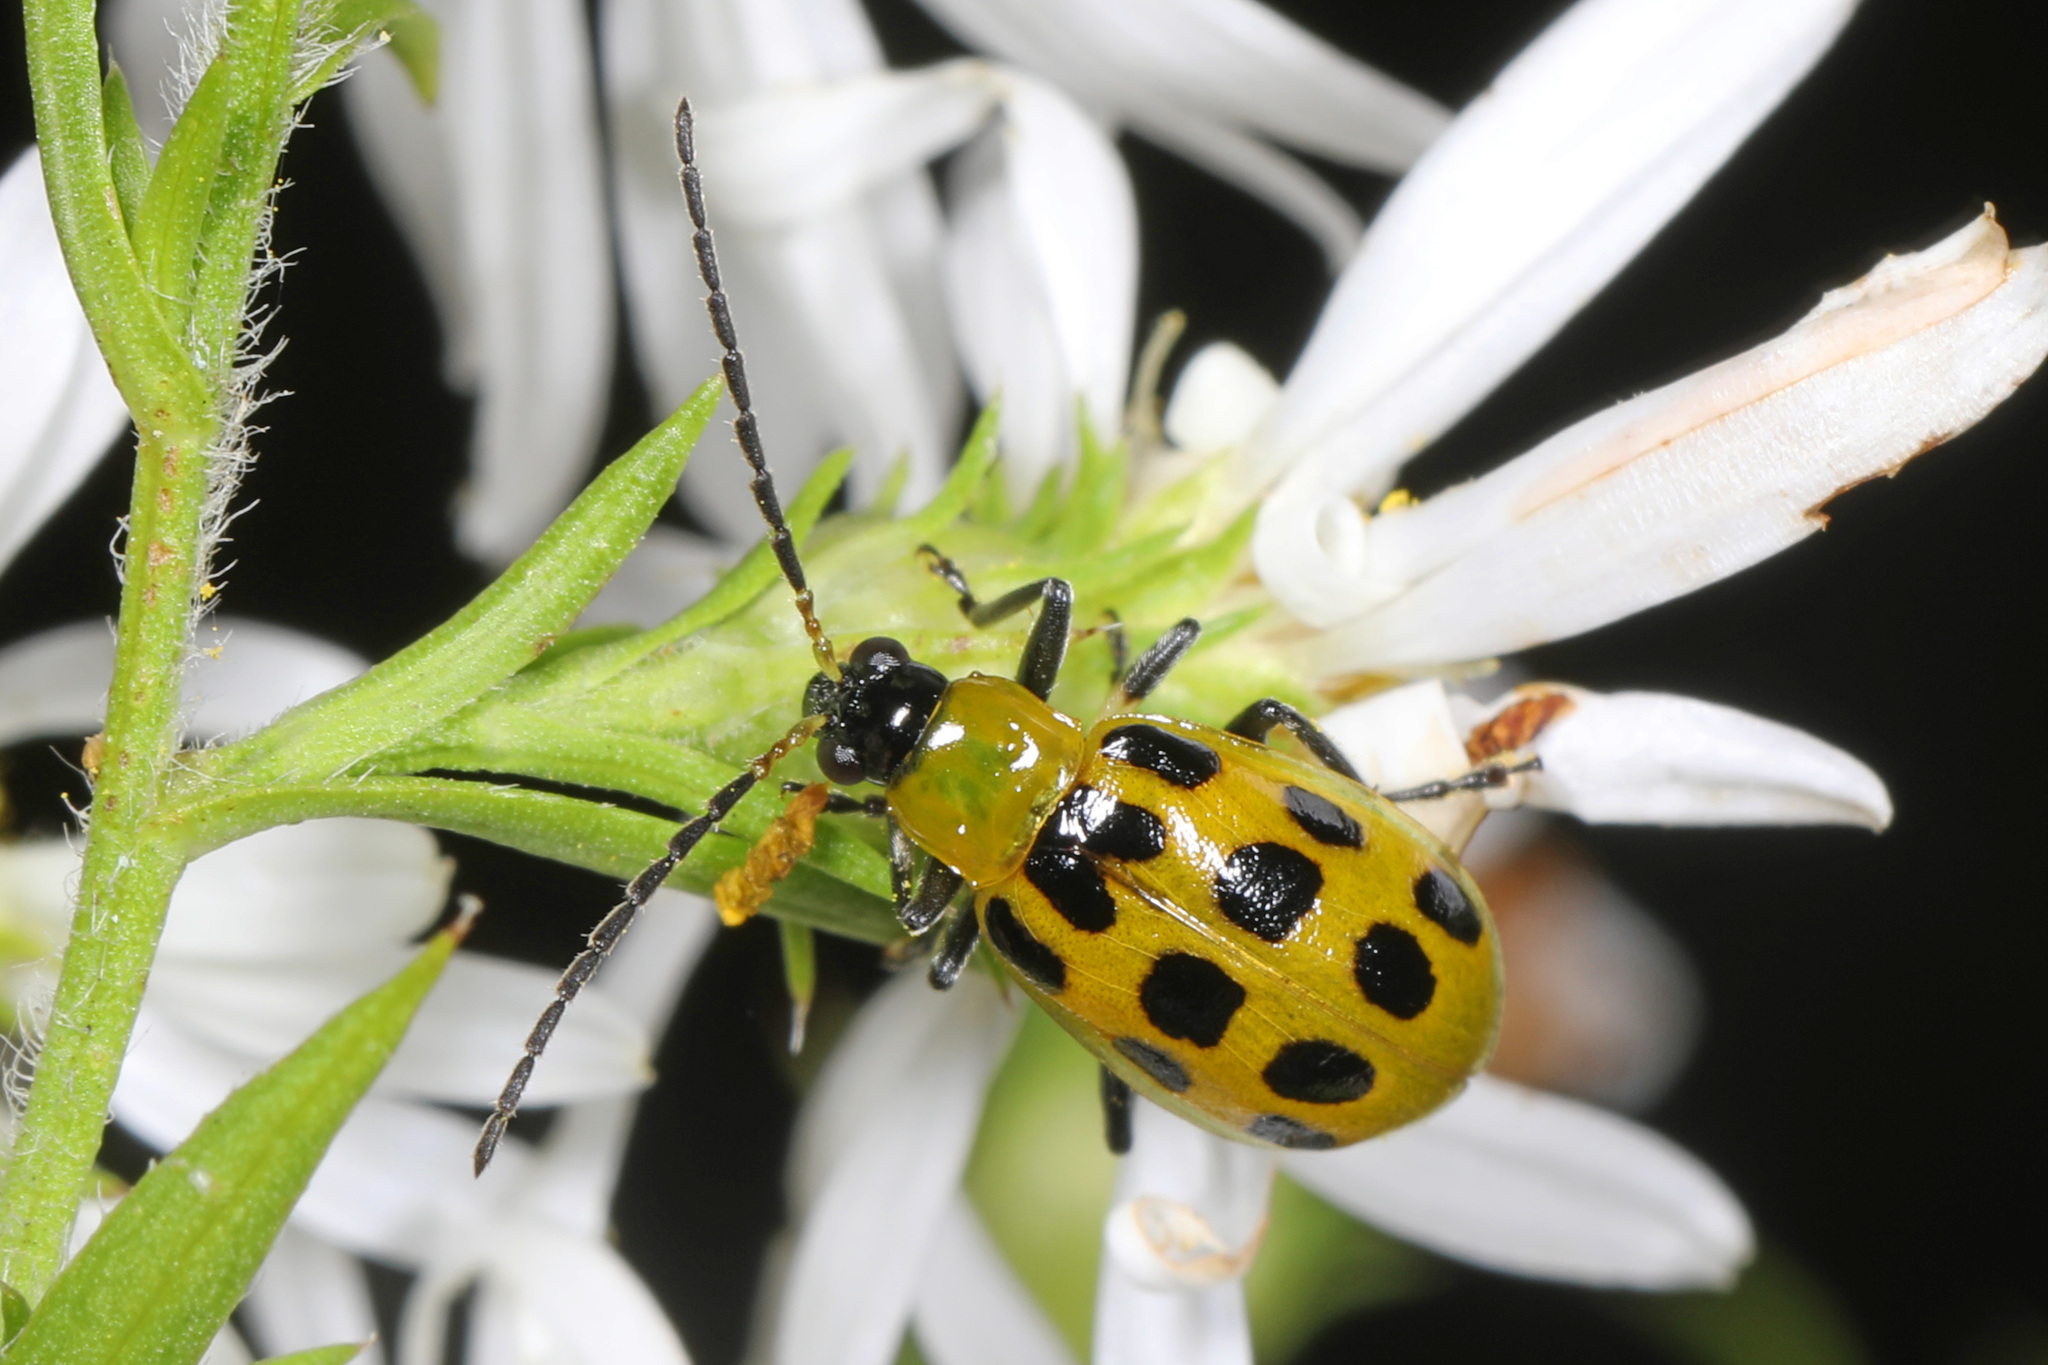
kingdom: Animalia
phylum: Arthropoda
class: Insecta
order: Coleoptera
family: Chrysomelidae
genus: Diabrotica
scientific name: Diabrotica undecimpunctata
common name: Spotted cucumber beetle
